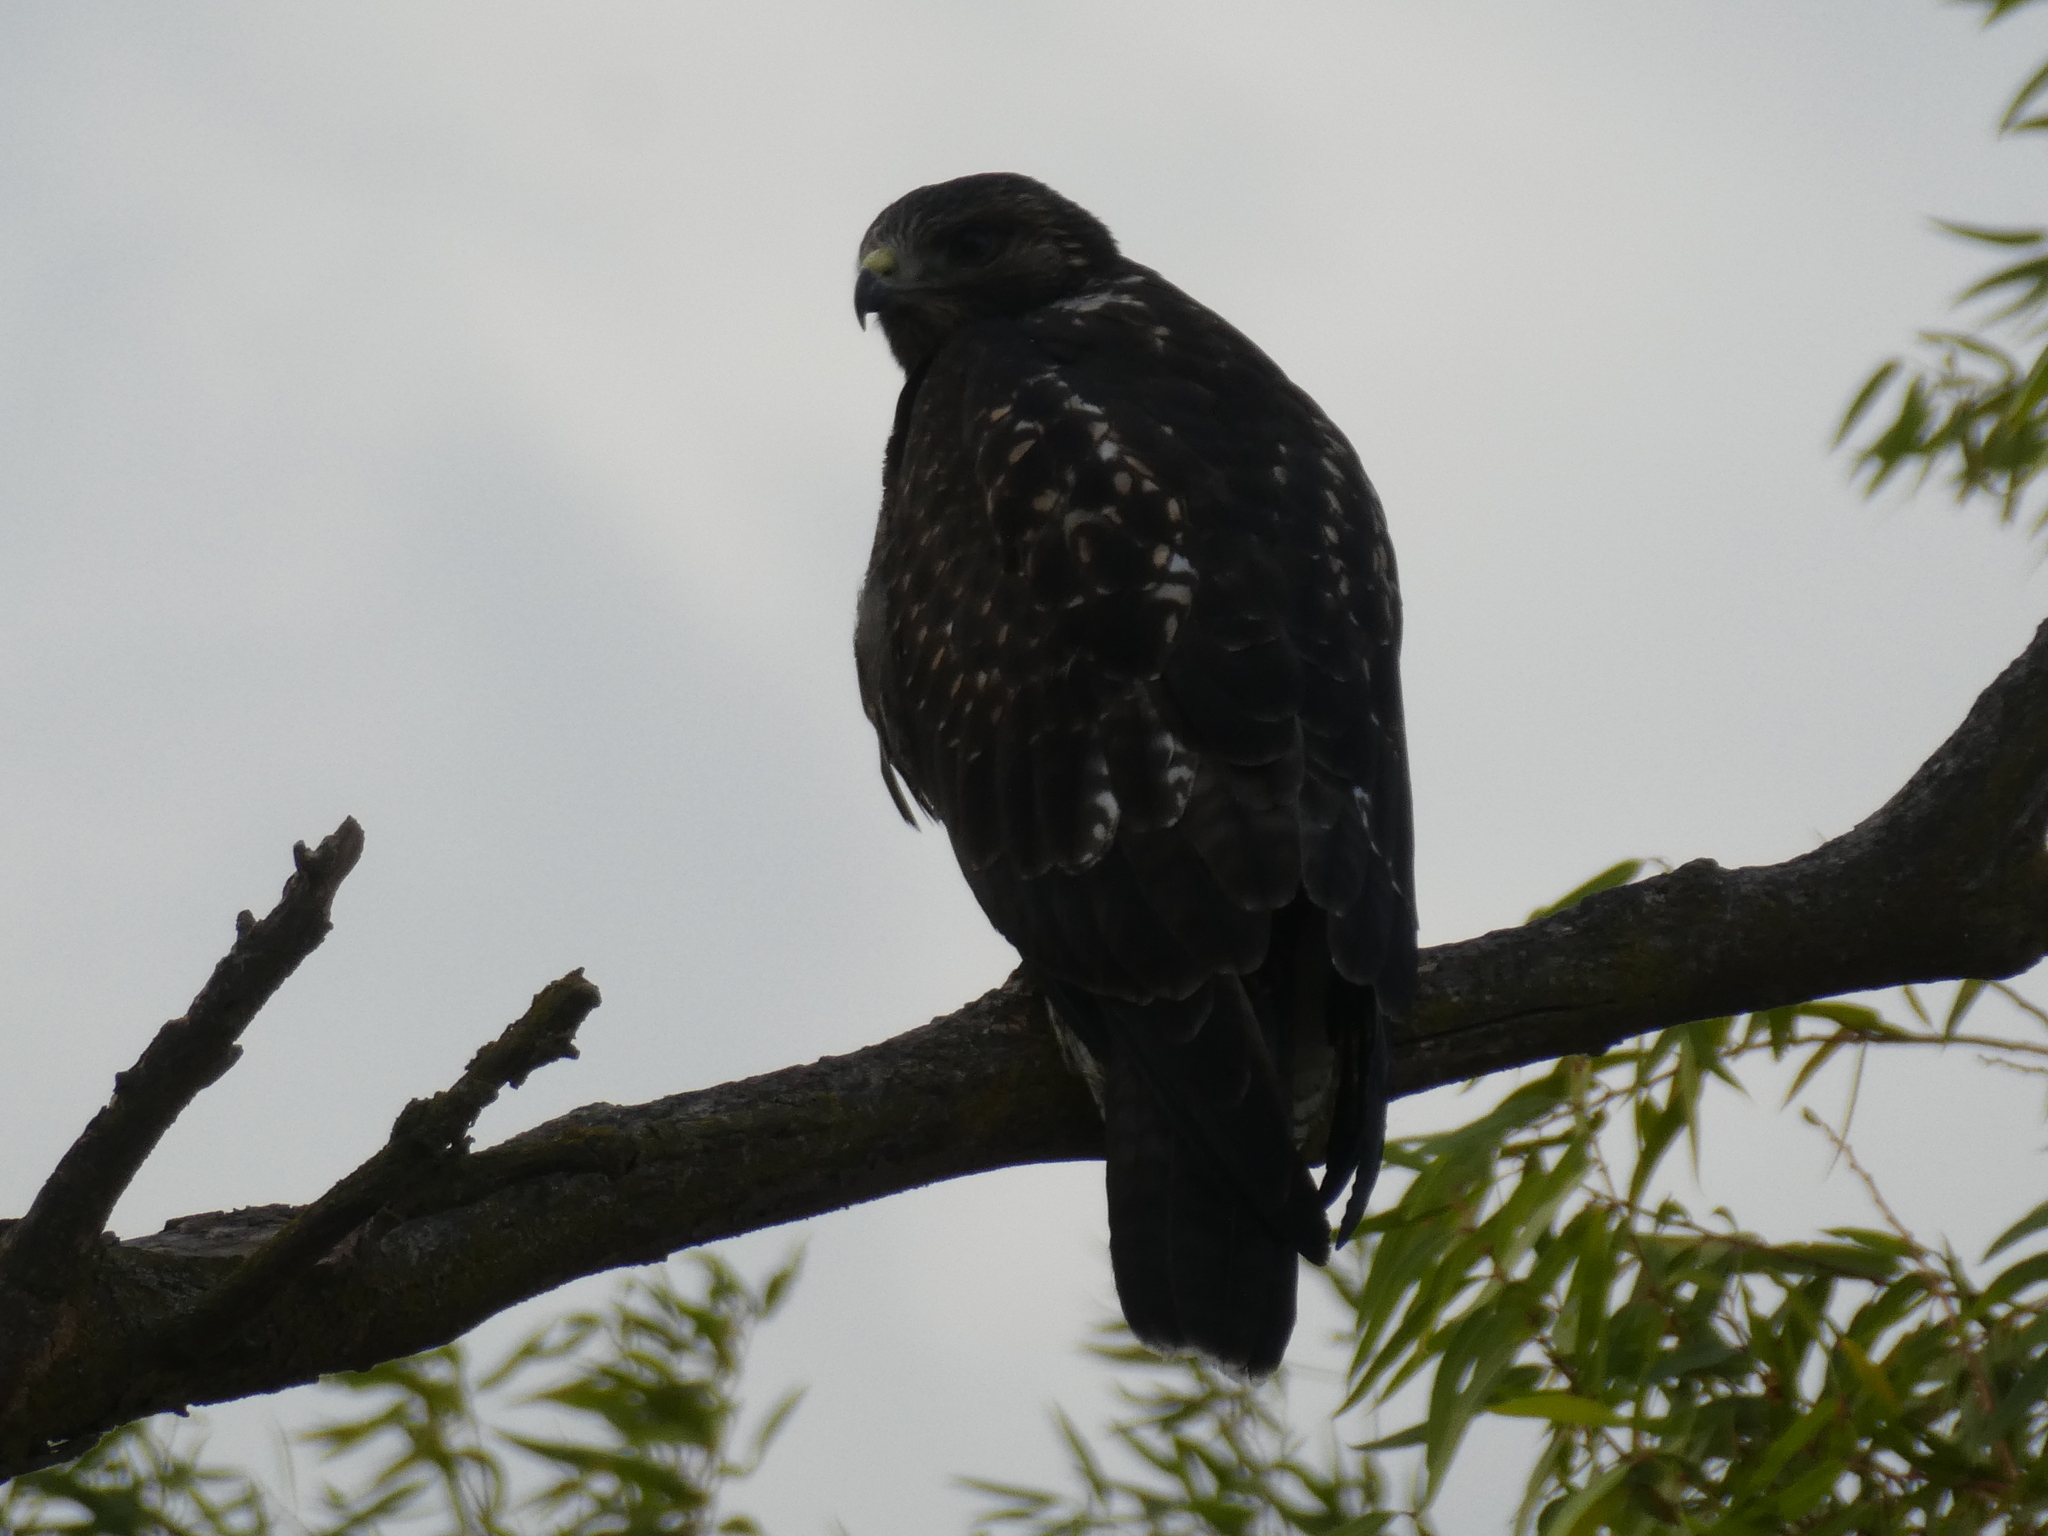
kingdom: Animalia
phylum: Chordata
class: Aves
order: Accipitriformes
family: Accipitridae
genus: Buteo
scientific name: Buteo swainsoni
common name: Swainson's hawk
